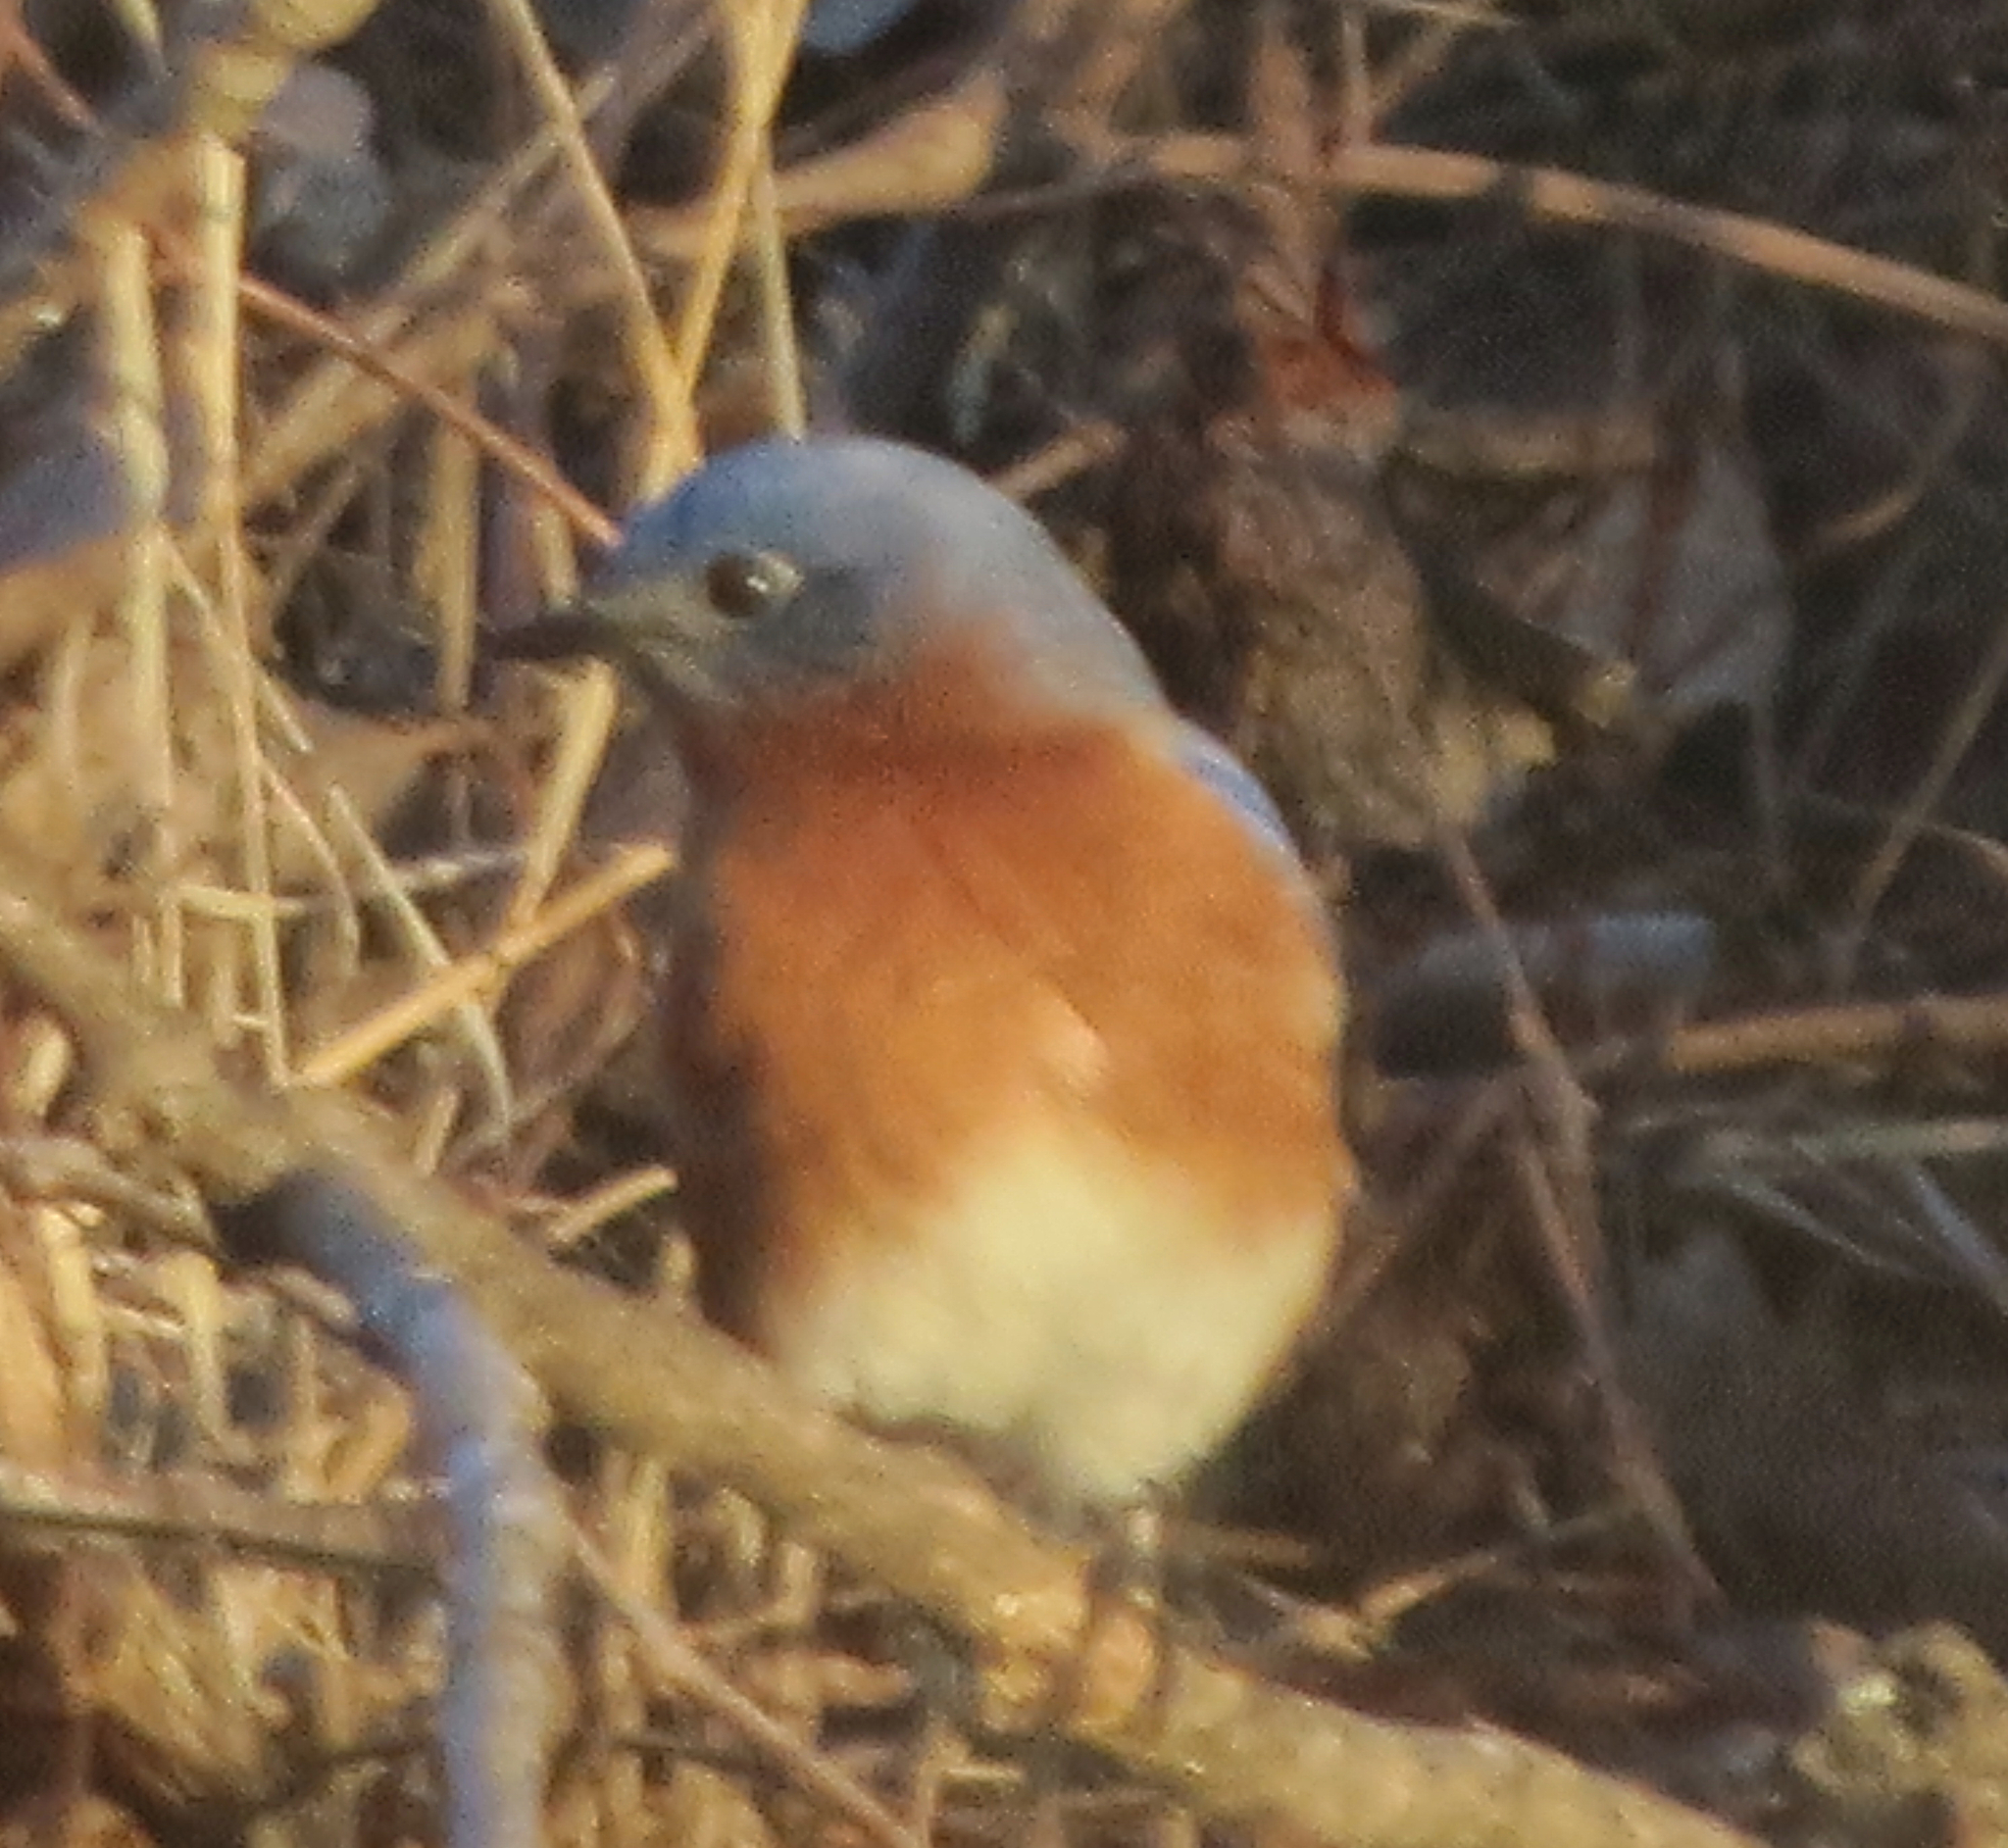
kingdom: Animalia
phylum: Chordata
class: Aves
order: Passeriformes
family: Turdidae
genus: Sialia
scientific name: Sialia sialis
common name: Eastern bluebird
